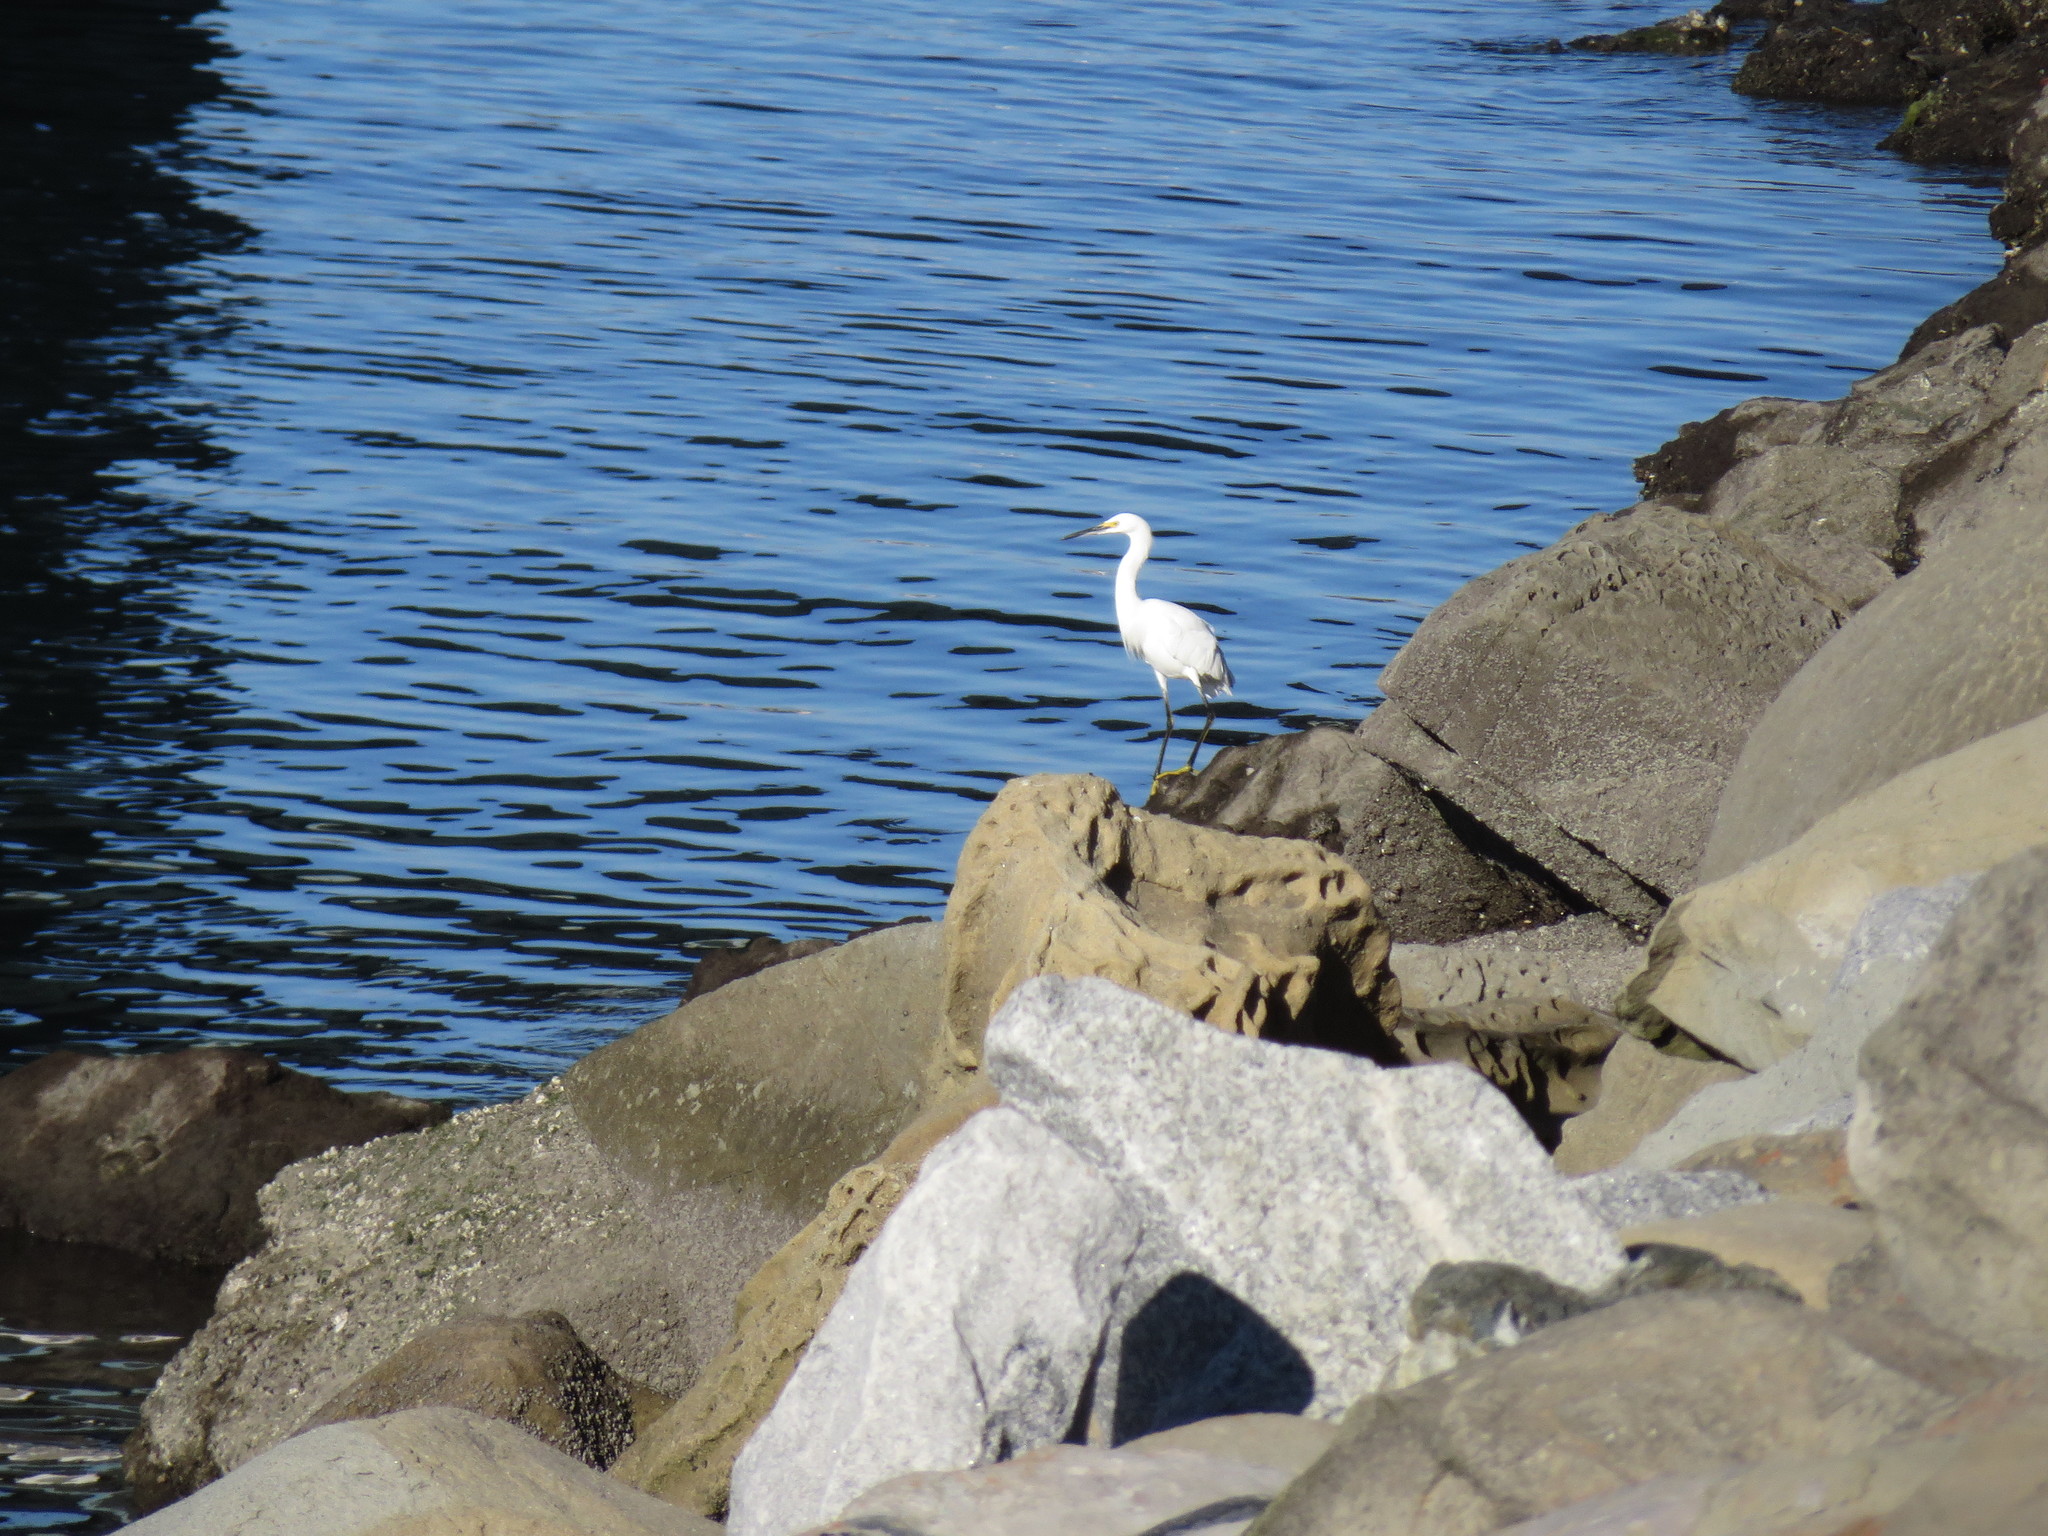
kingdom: Animalia
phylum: Chordata
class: Aves
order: Pelecaniformes
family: Ardeidae
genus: Egretta
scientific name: Egretta thula
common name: Snowy egret
